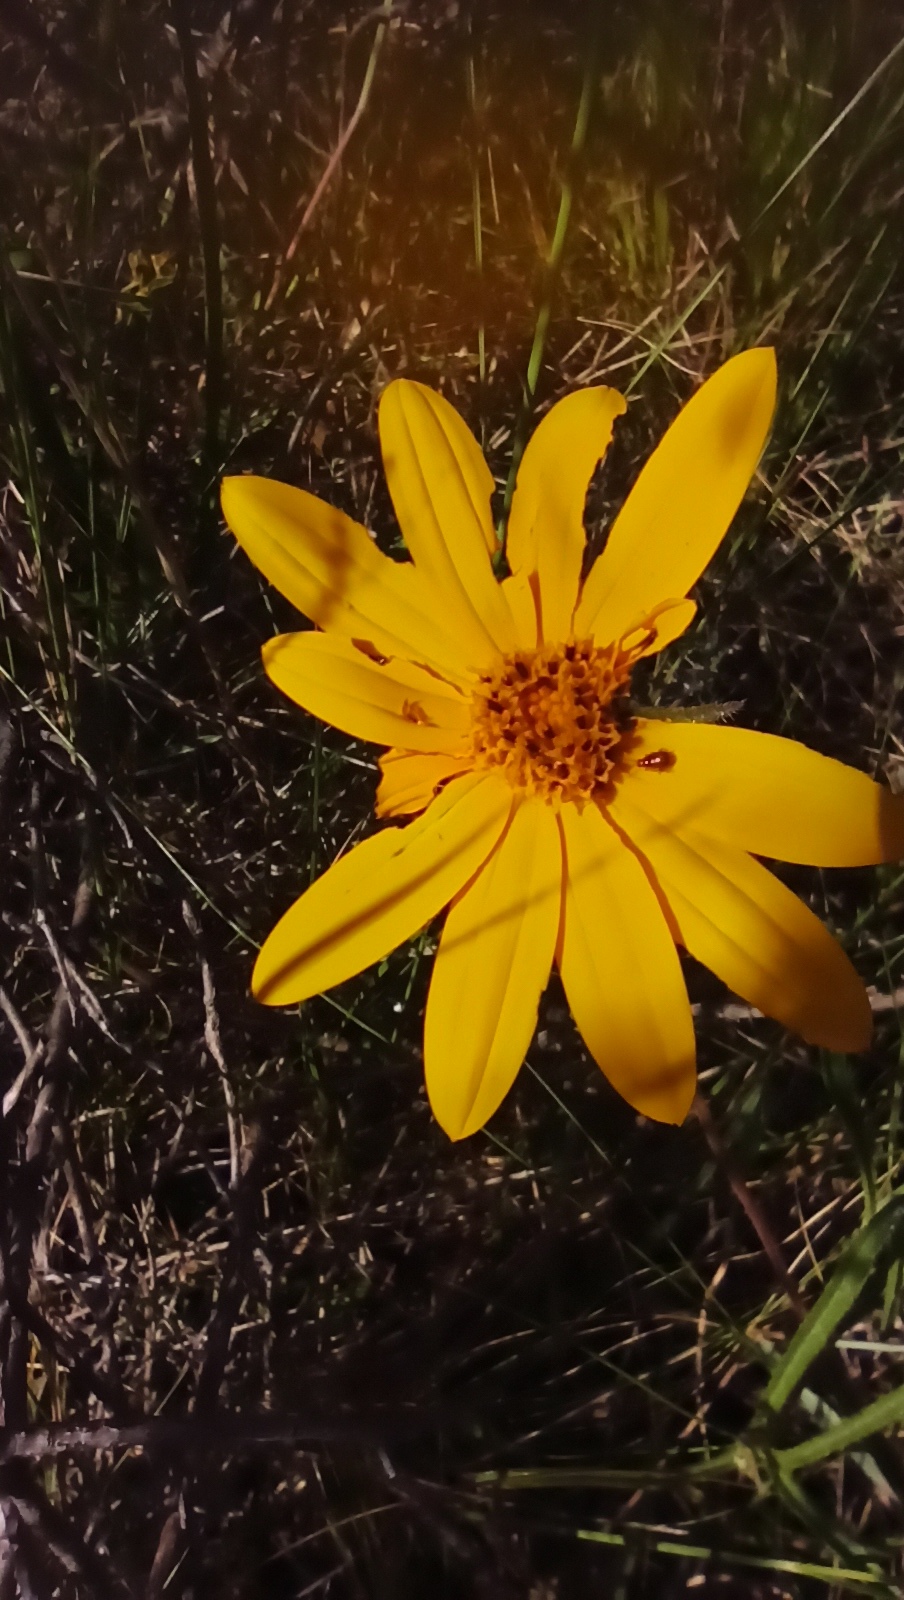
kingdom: Plantae
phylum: Tracheophyta
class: Magnoliopsida
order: Asterales
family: Asteraceae
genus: Wedelia
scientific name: Wedelia montevidensis
